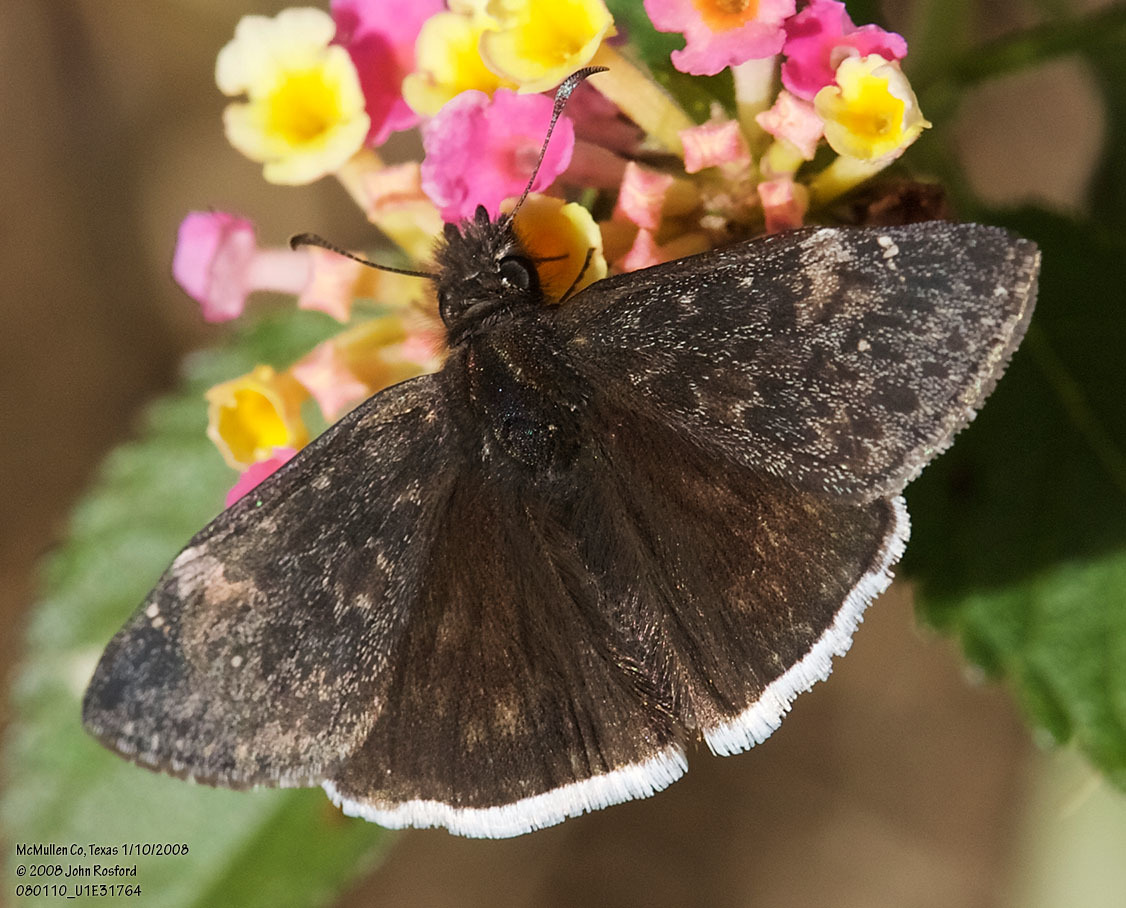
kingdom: Animalia
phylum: Arthropoda
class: Insecta
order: Lepidoptera
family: Hesperiidae
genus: Erynnis
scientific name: Erynnis funeralis
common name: Funereal duskywing
